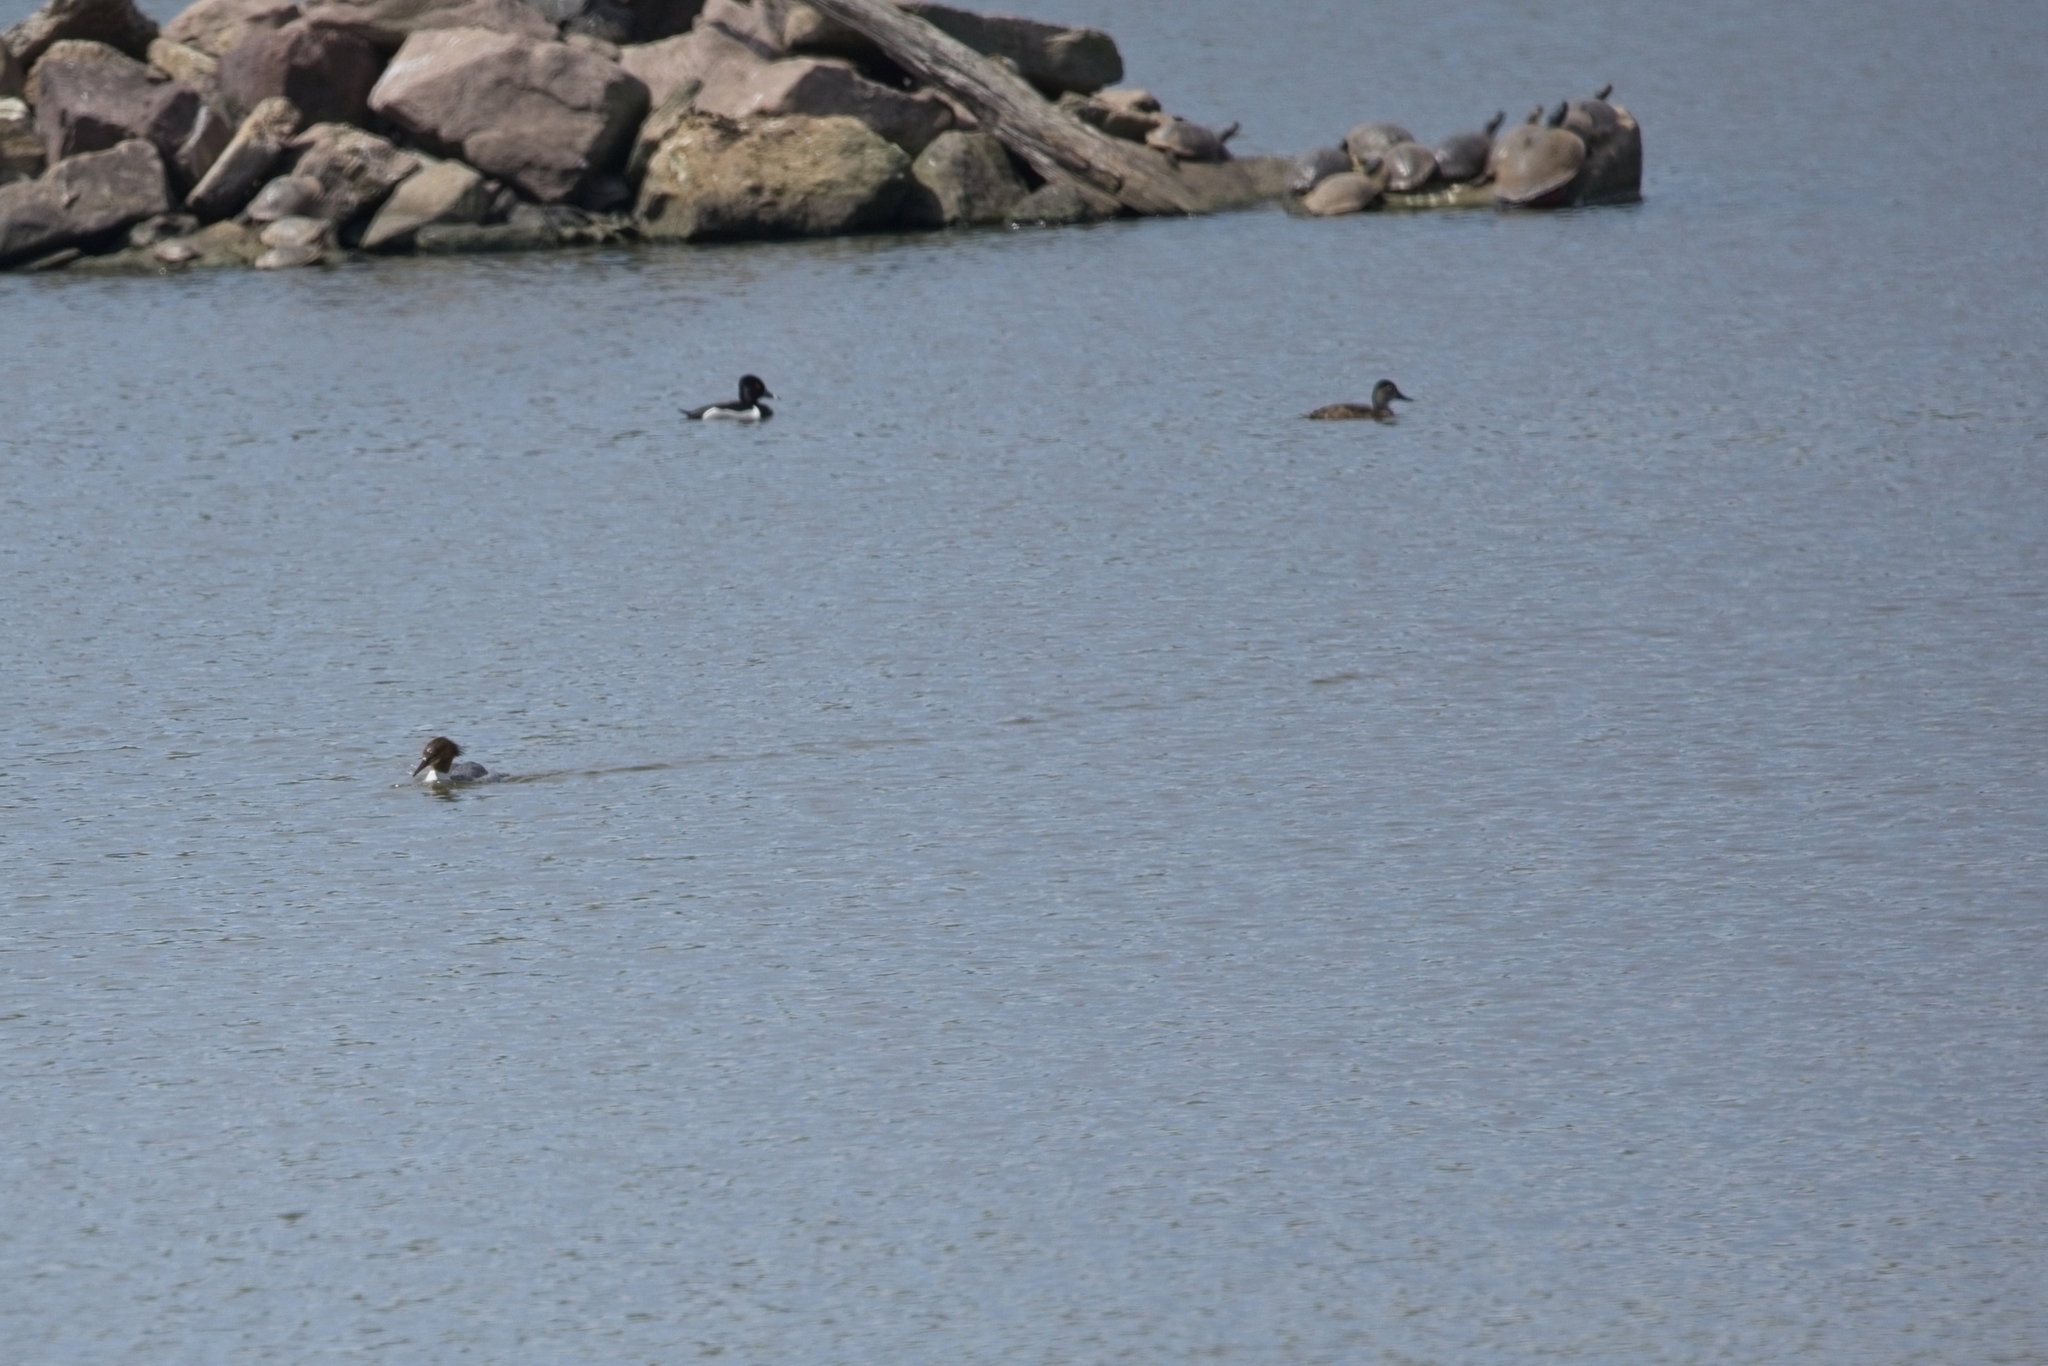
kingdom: Animalia
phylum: Chordata
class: Aves
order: Anseriformes
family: Anatidae
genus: Aythya
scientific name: Aythya collaris
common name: Ring-necked duck
